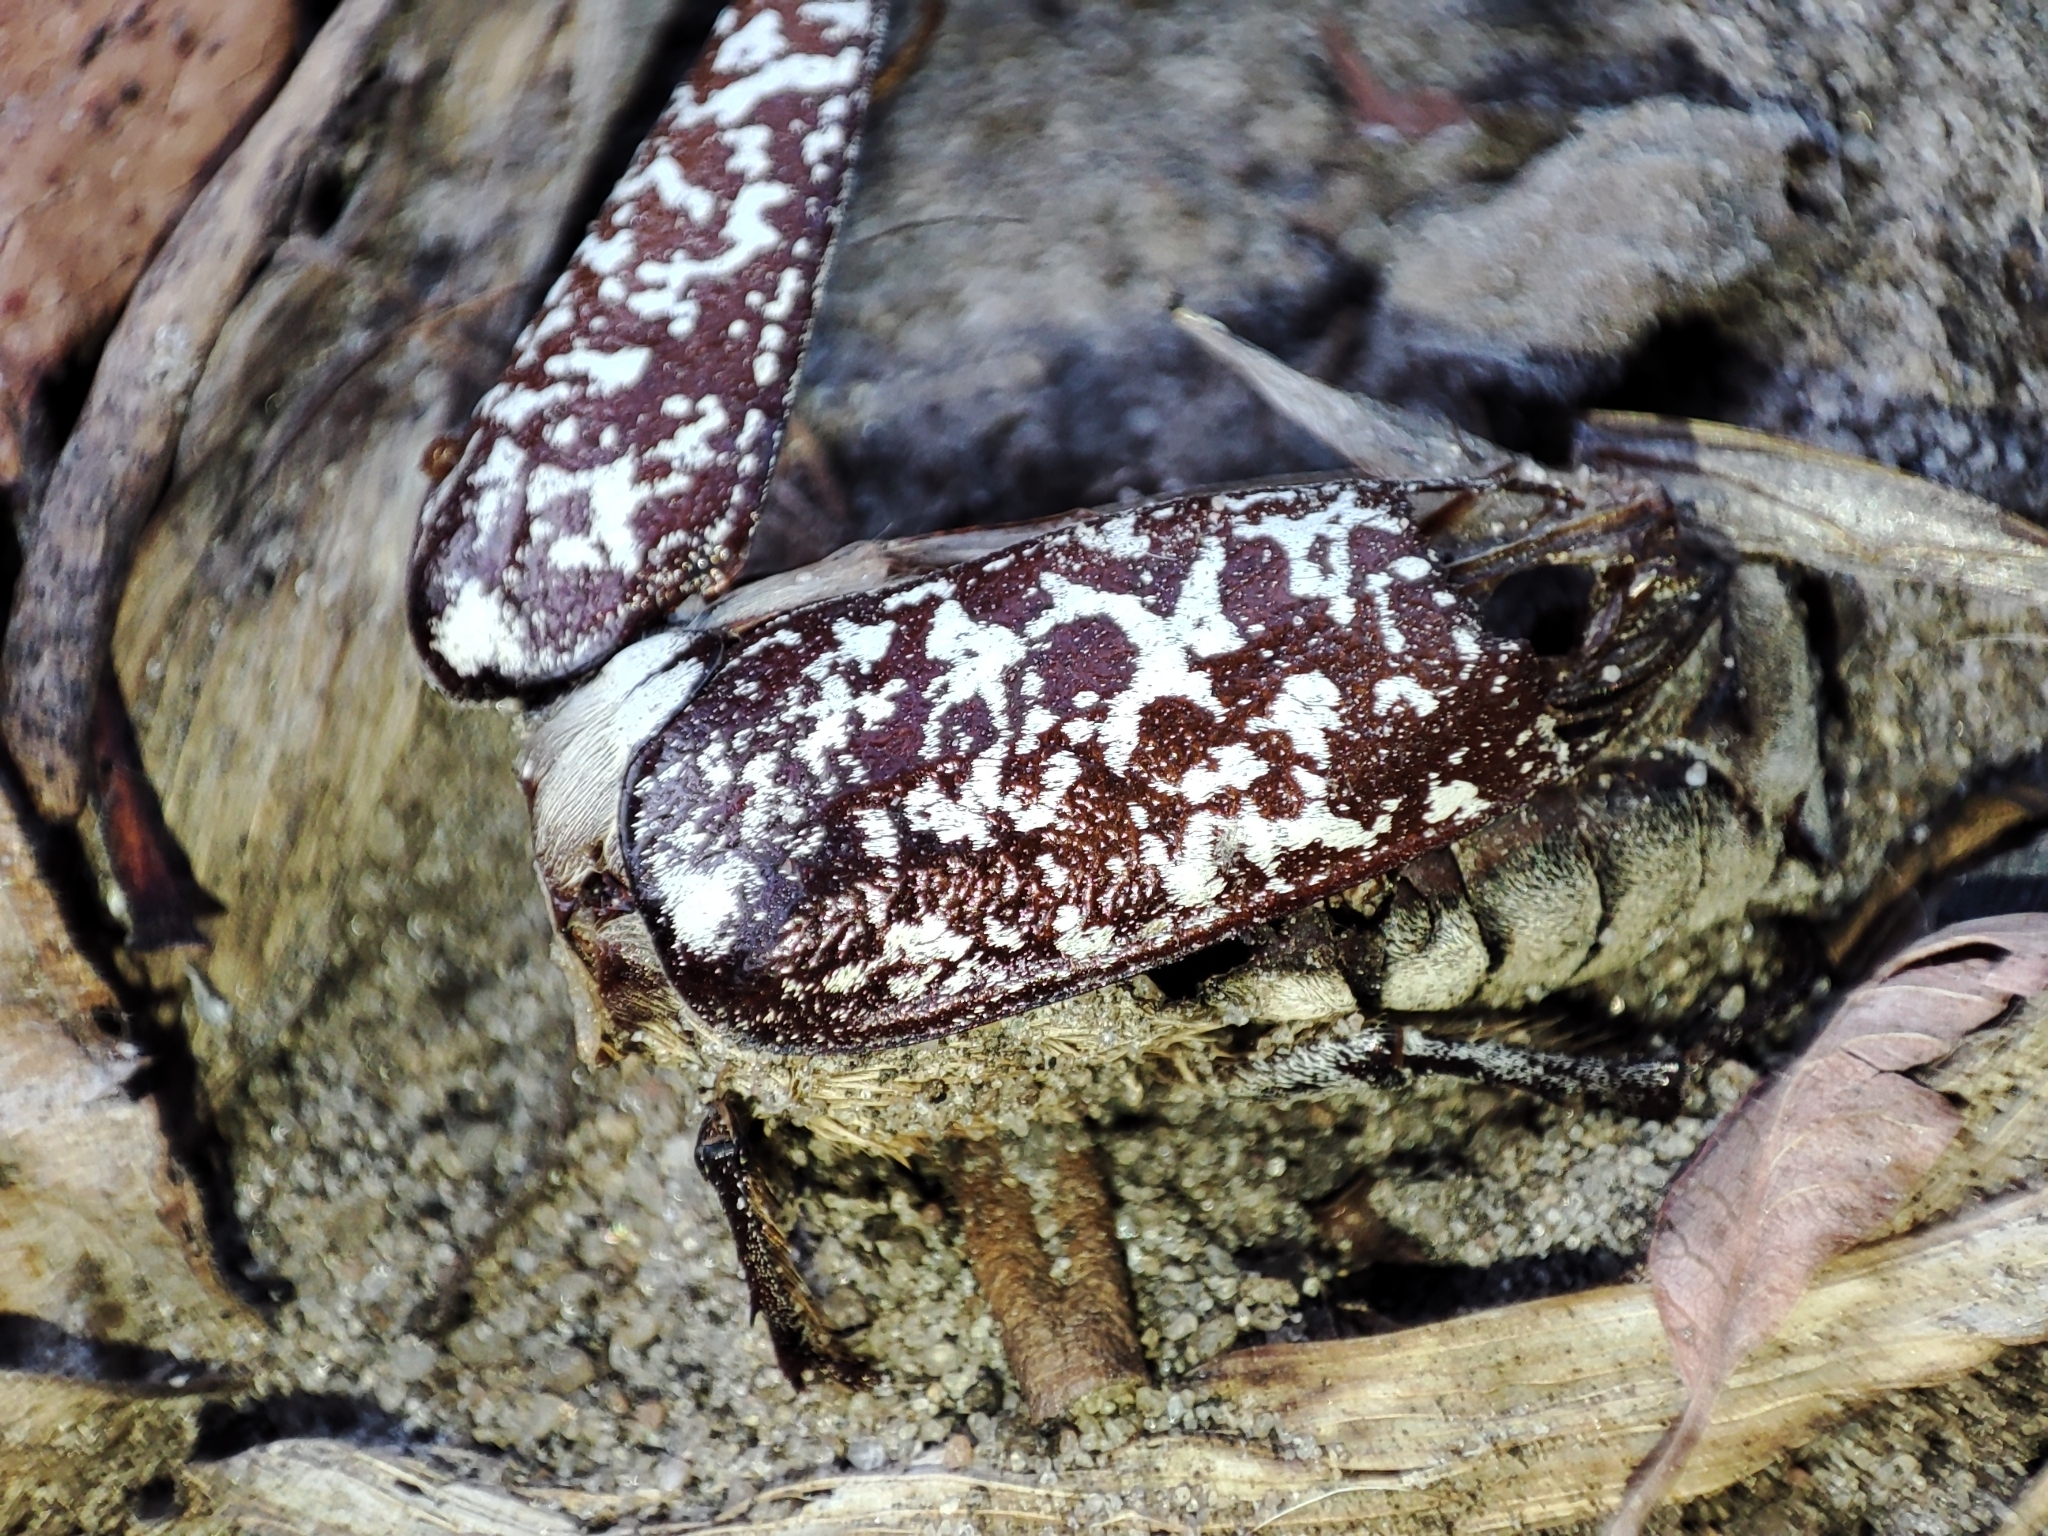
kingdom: Animalia
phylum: Arthropoda
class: Insecta
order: Coleoptera
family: Scarabaeidae
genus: Polyphylla
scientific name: Polyphylla fullo
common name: Pine chafer
